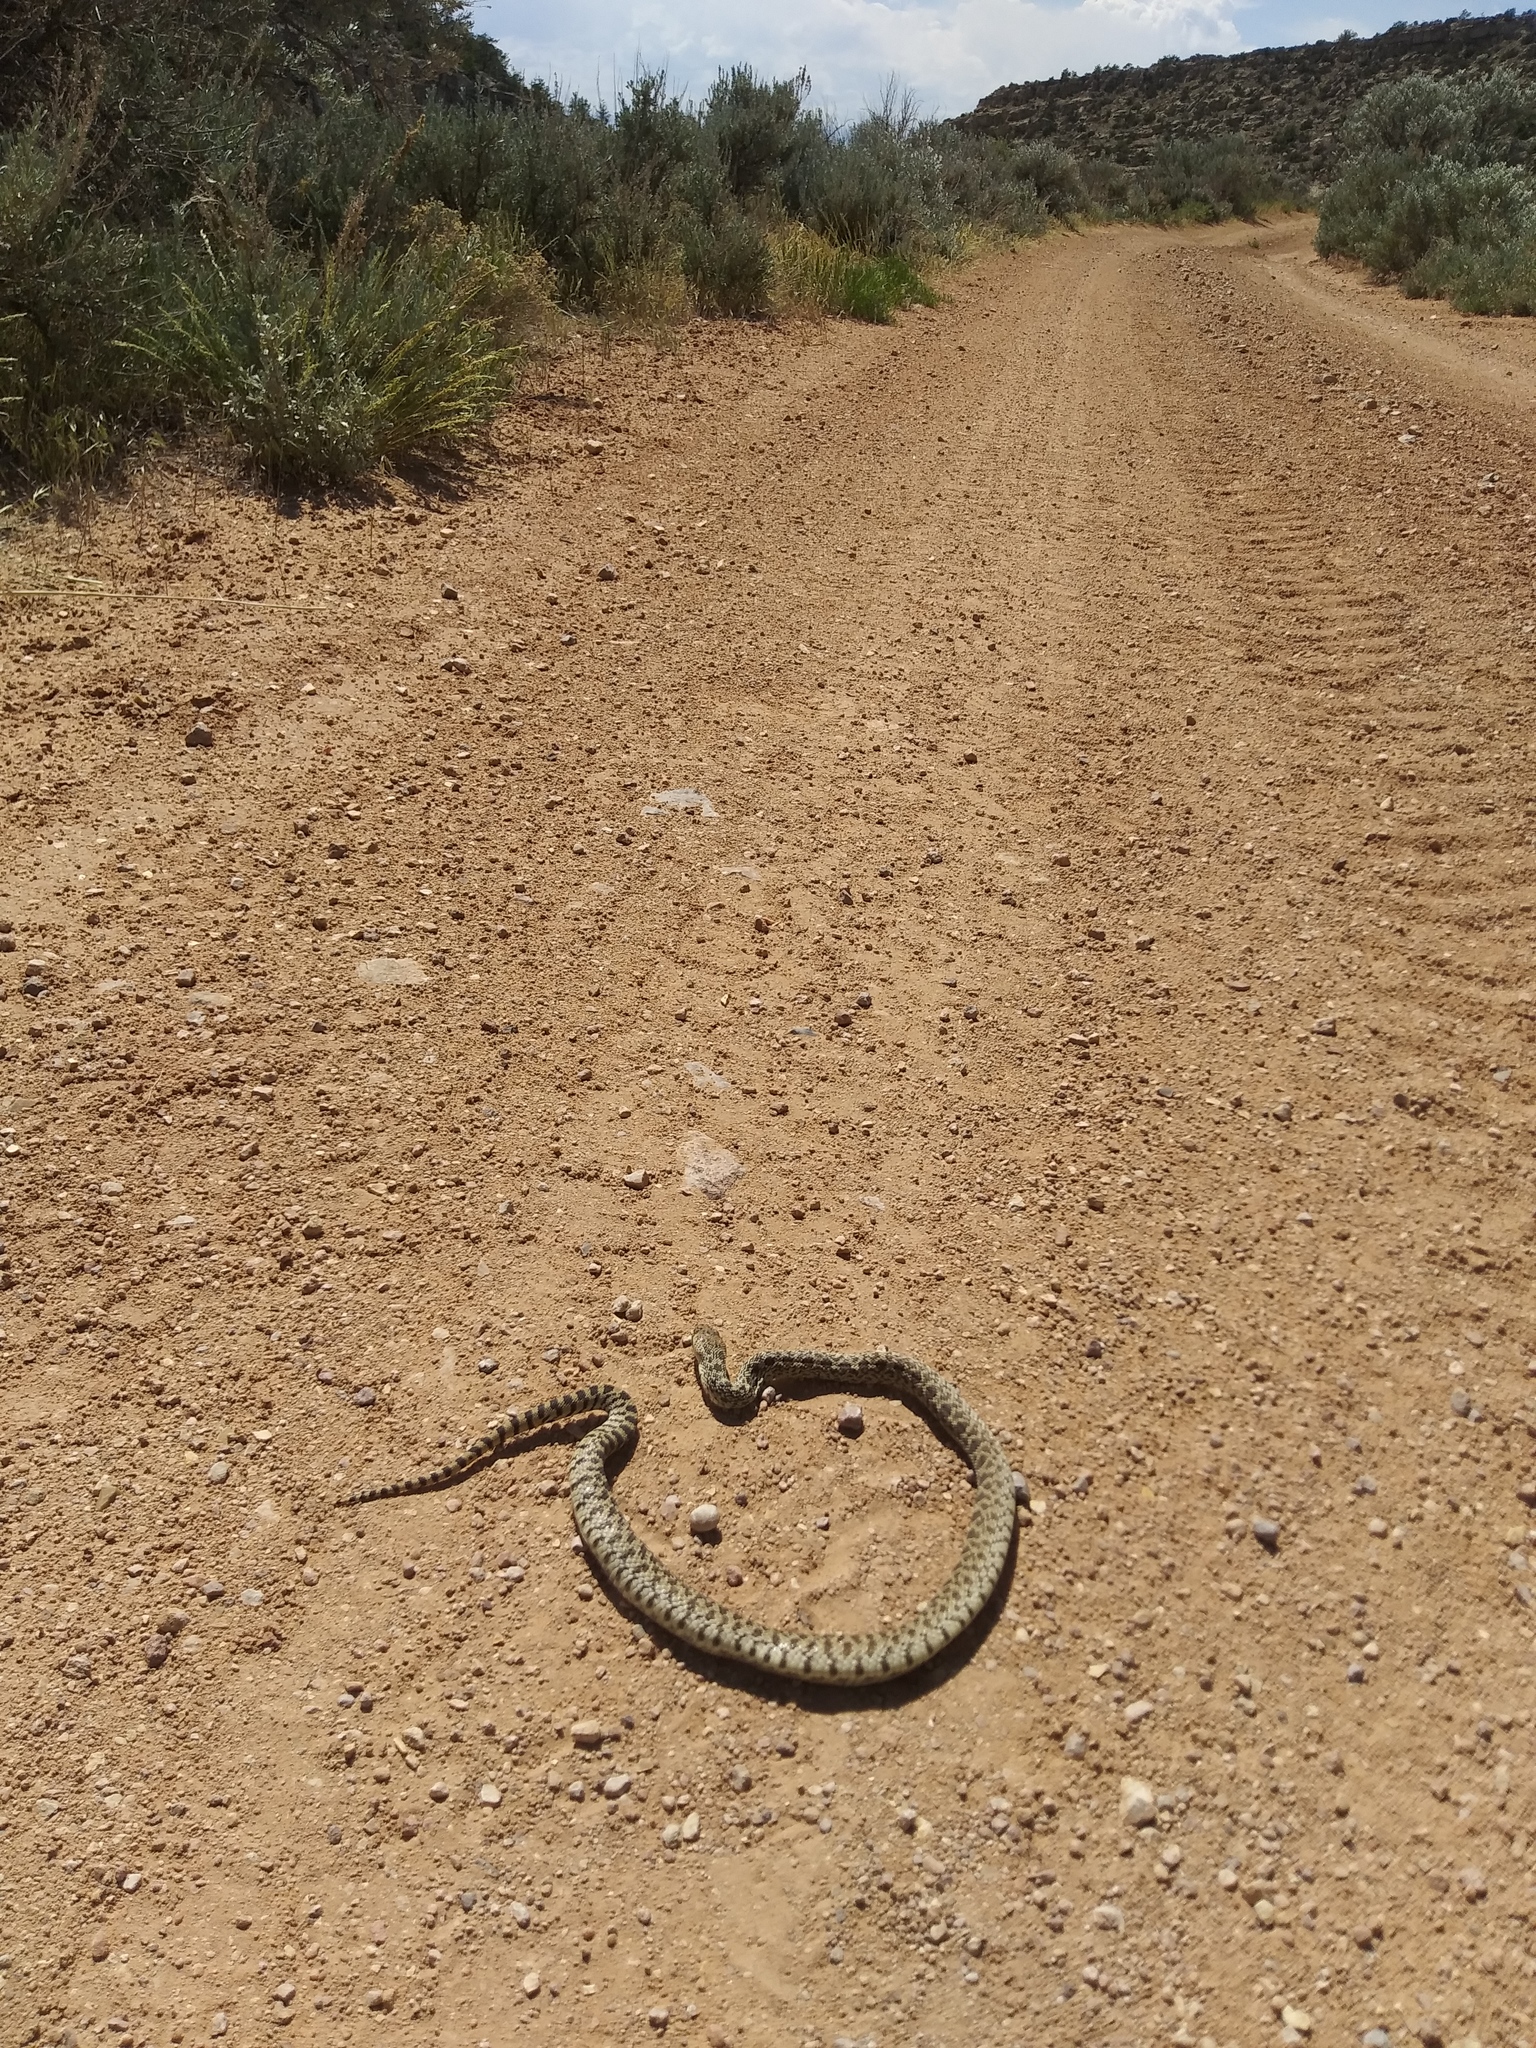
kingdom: Animalia
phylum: Chordata
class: Squamata
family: Colubridae
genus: Pituophis
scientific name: Pituophis catenifer
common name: Gopher snake
